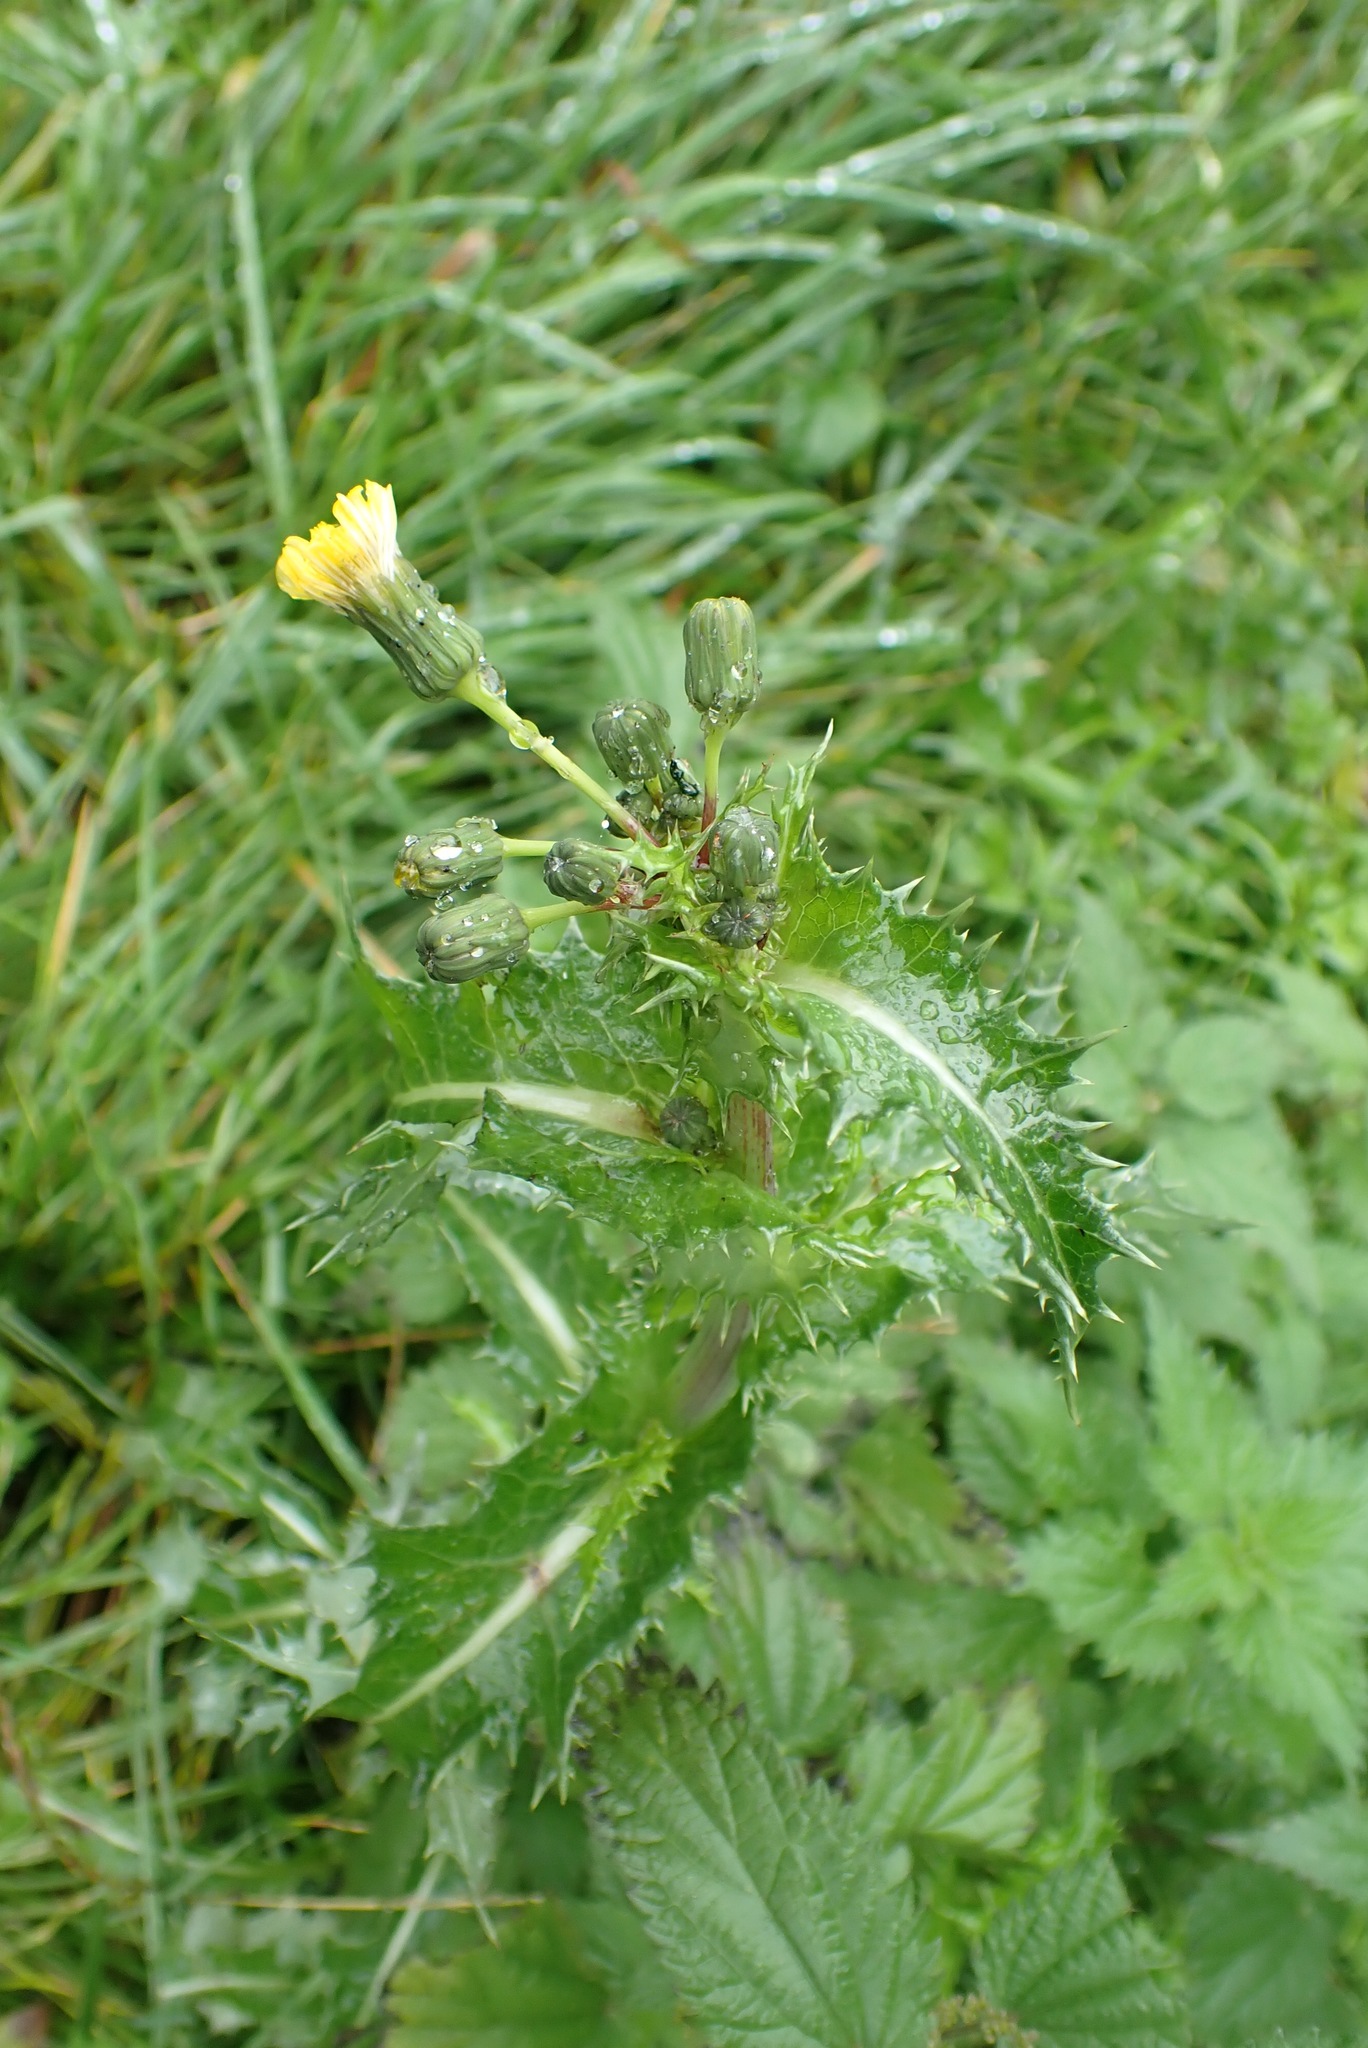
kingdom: Plantae
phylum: Tracheophyta
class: Magnoliopsida
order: Asterales
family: Asteraceae
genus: Sonchus
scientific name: Sonchus asper
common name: Prickly sow-thistle
